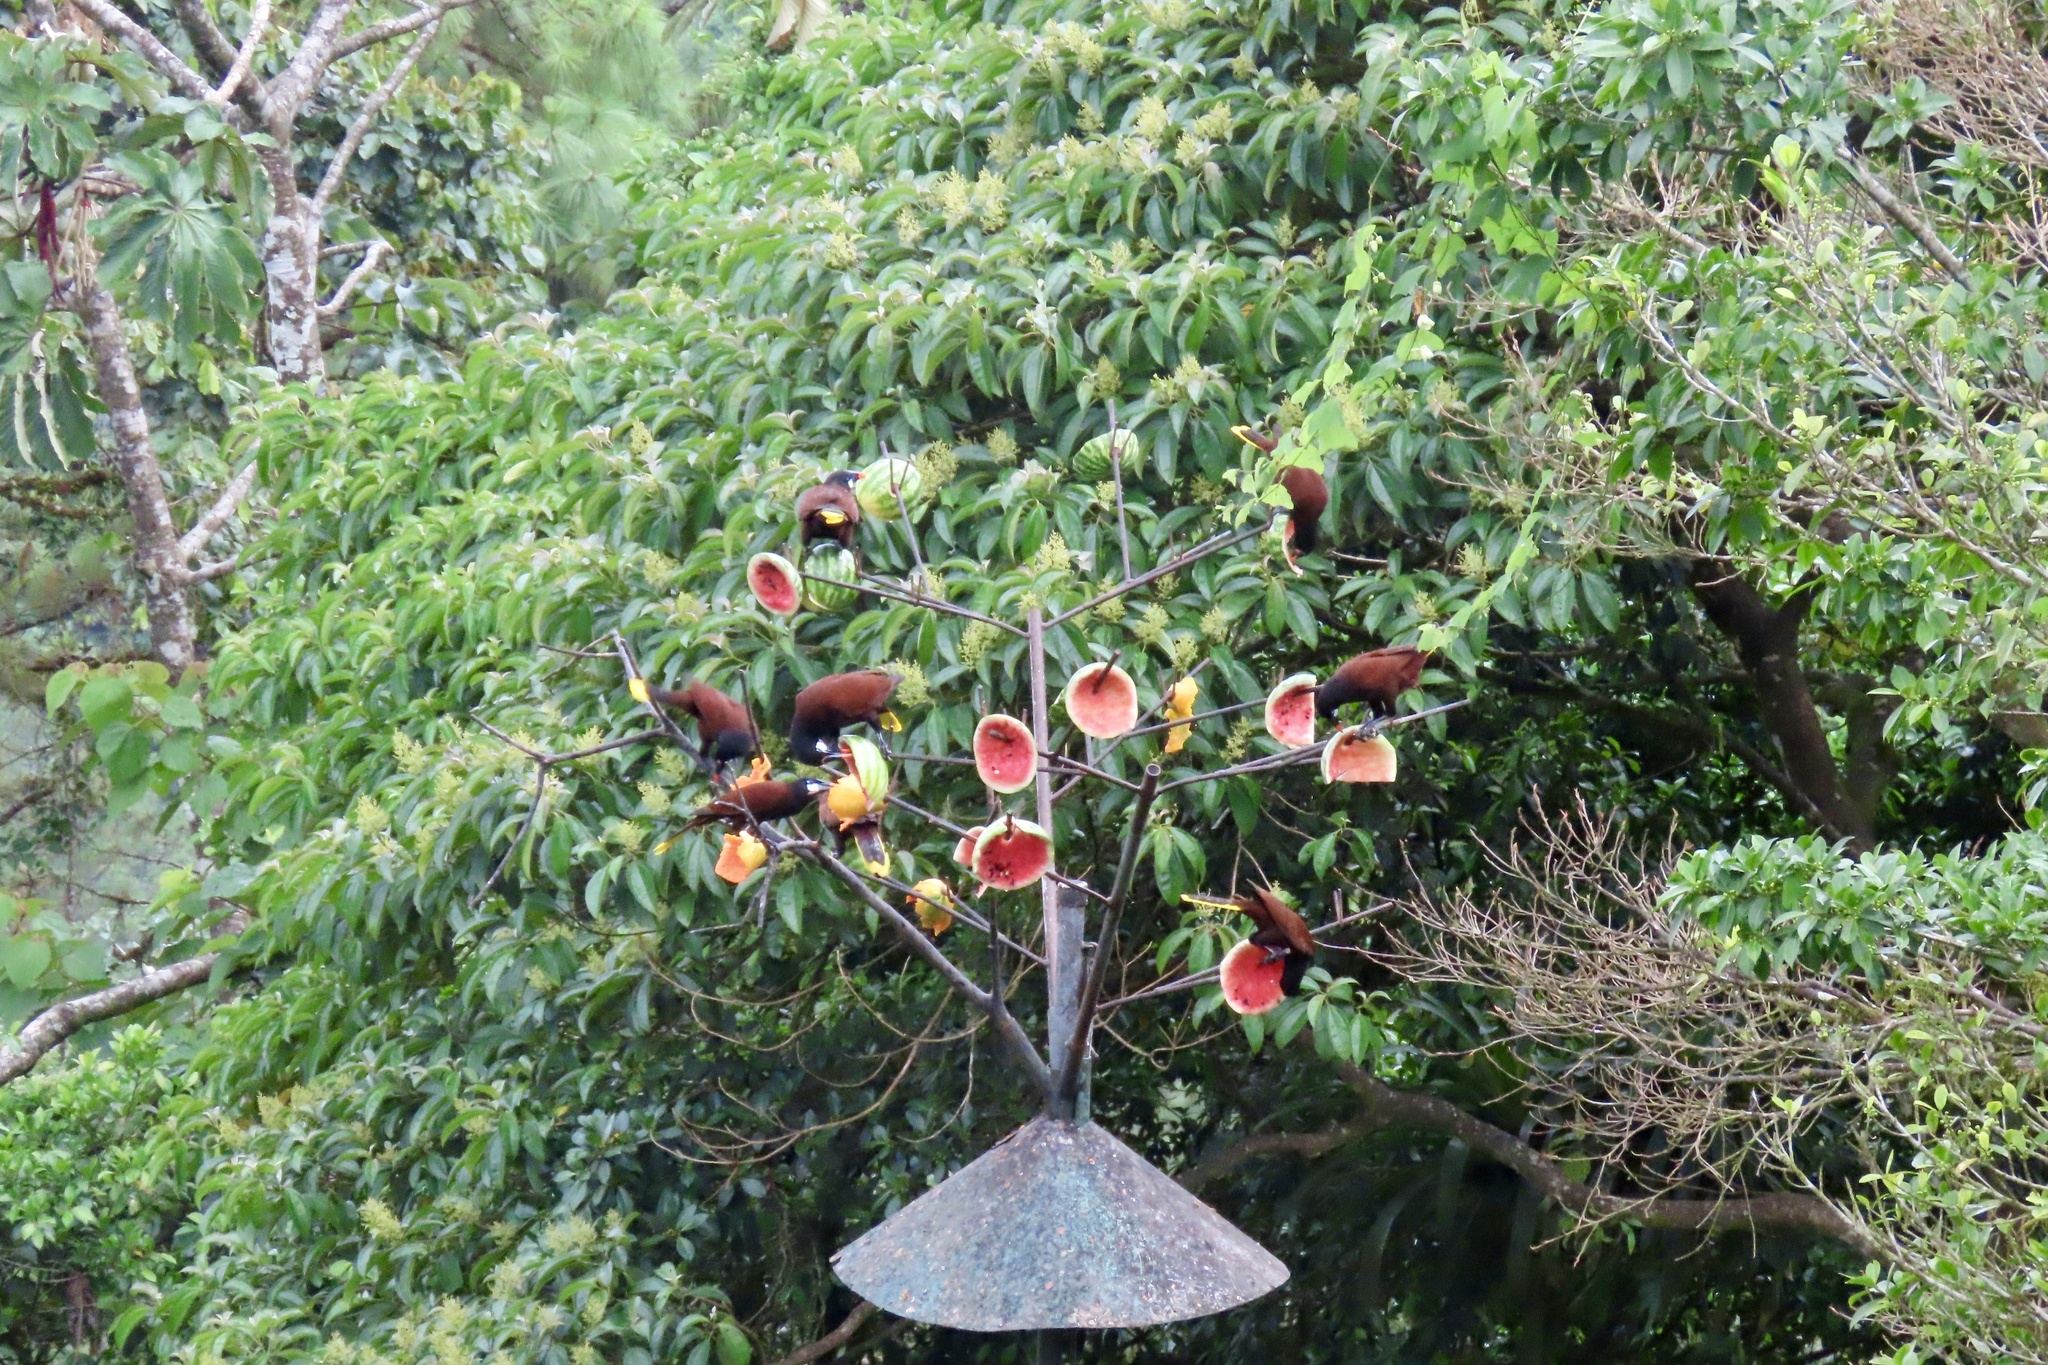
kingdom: Animalia
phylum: Chordata
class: Aves
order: Passeriformes
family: Icteridae
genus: Psarocolius
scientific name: Psarocolius montezuma
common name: Montezuma oropendola
